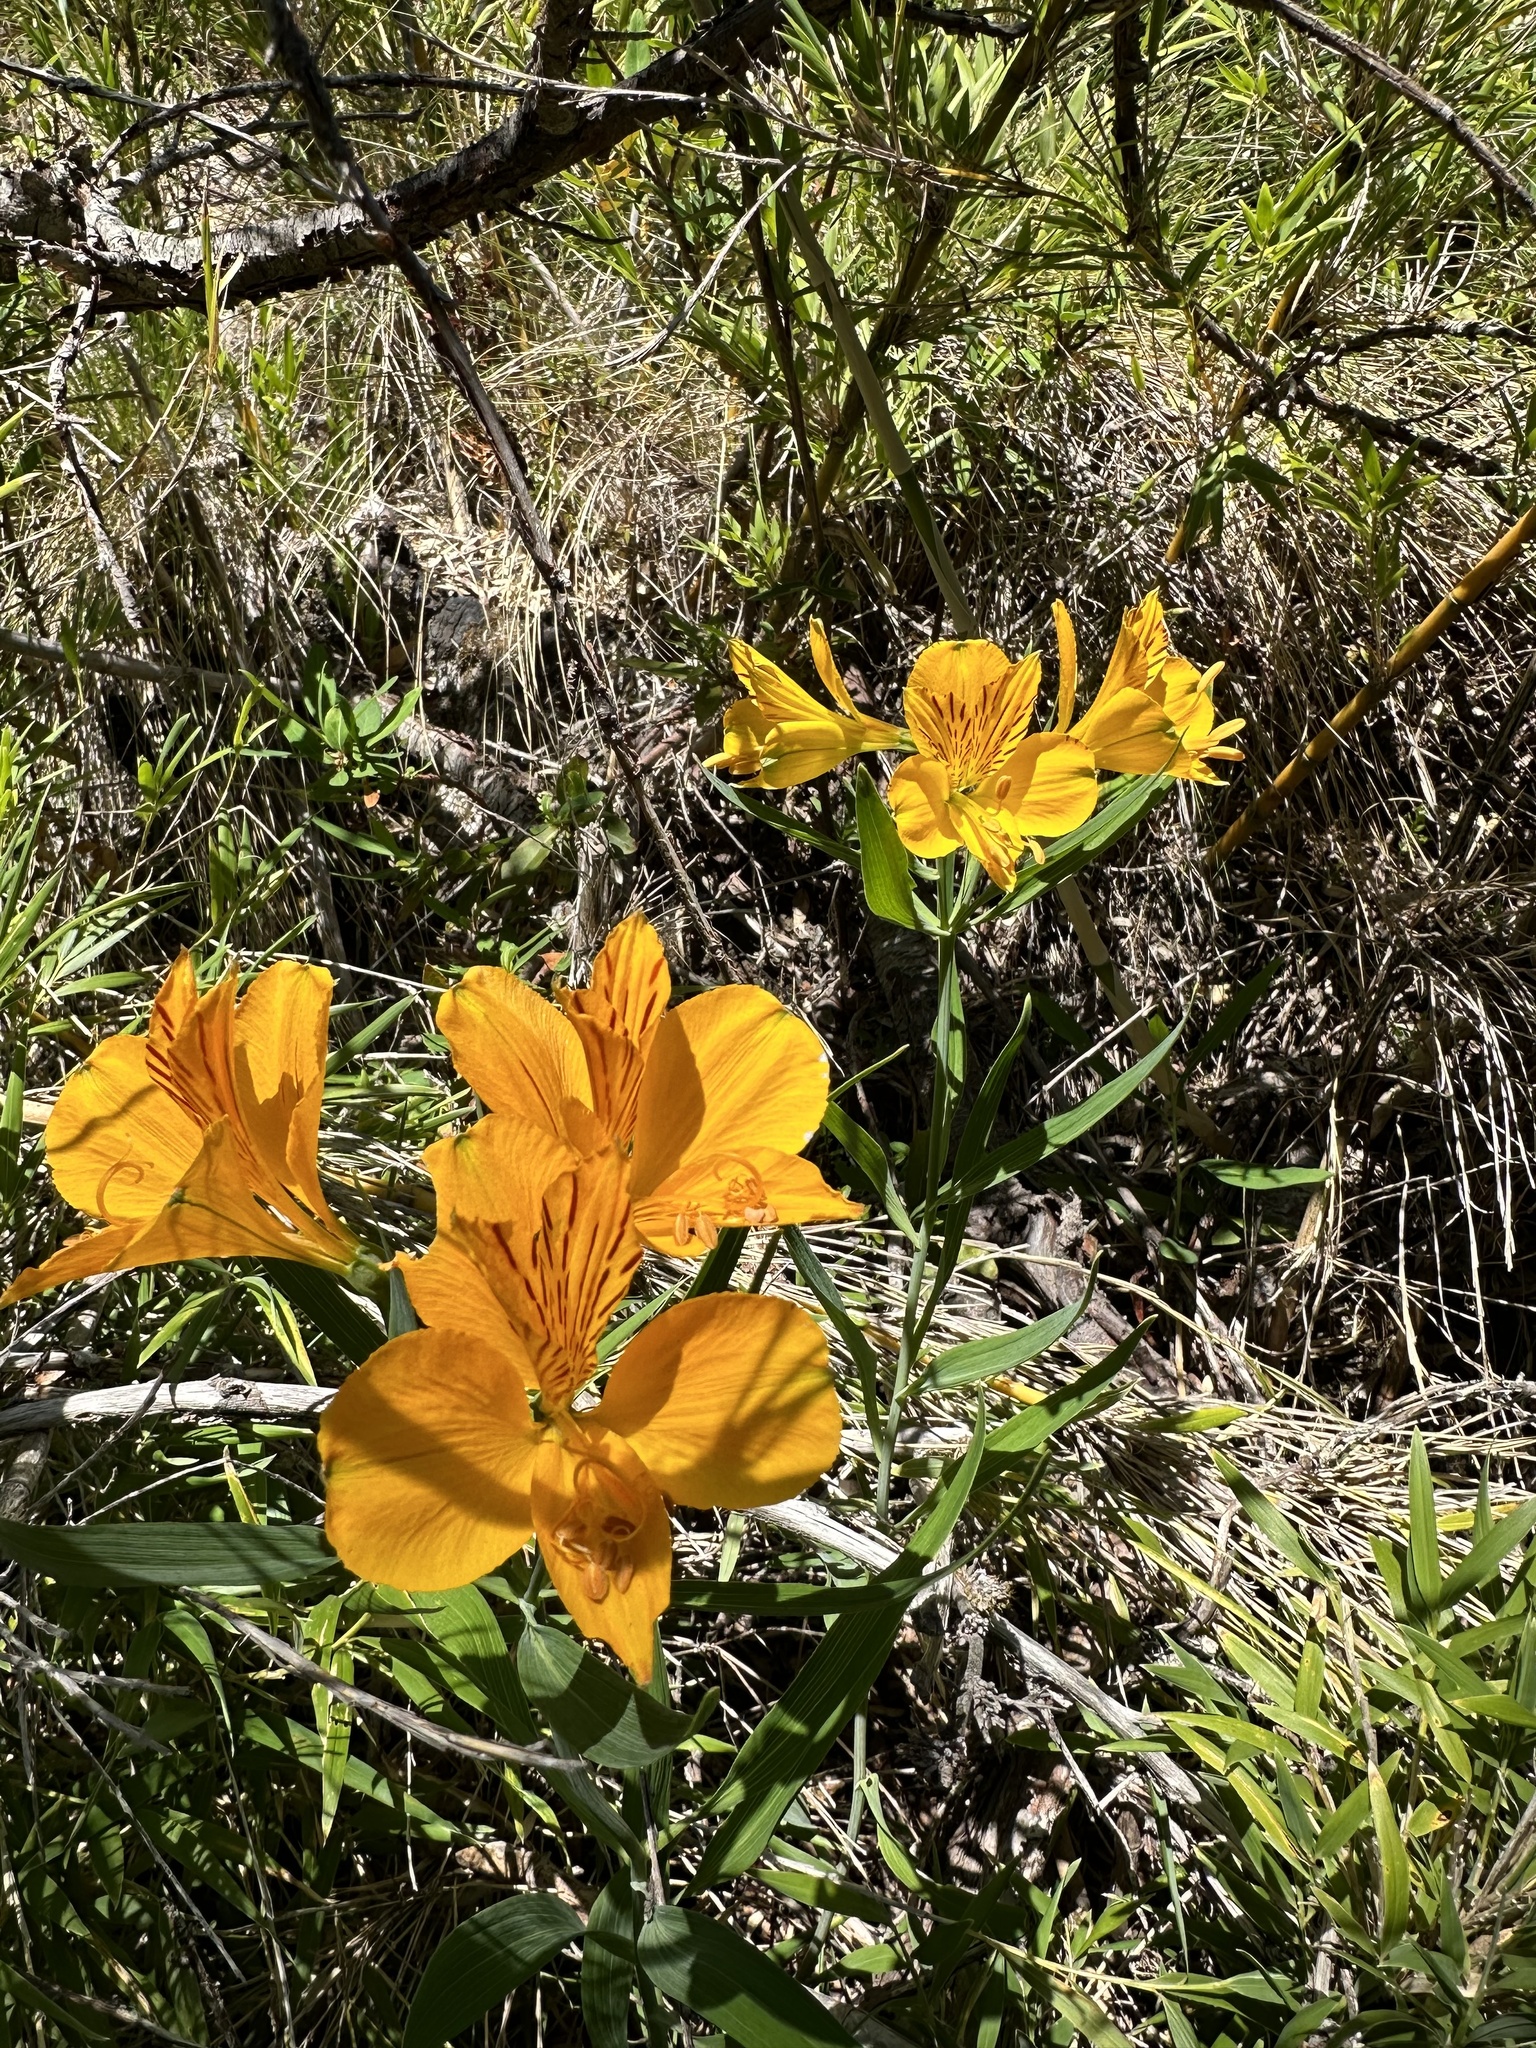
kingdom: Plantae
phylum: Tracheophyta
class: Liliopsida
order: Liliales
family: Alstroemeriaceae
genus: Alstroemeria
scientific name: Alstroemeria aurea
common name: Peruvian lily
